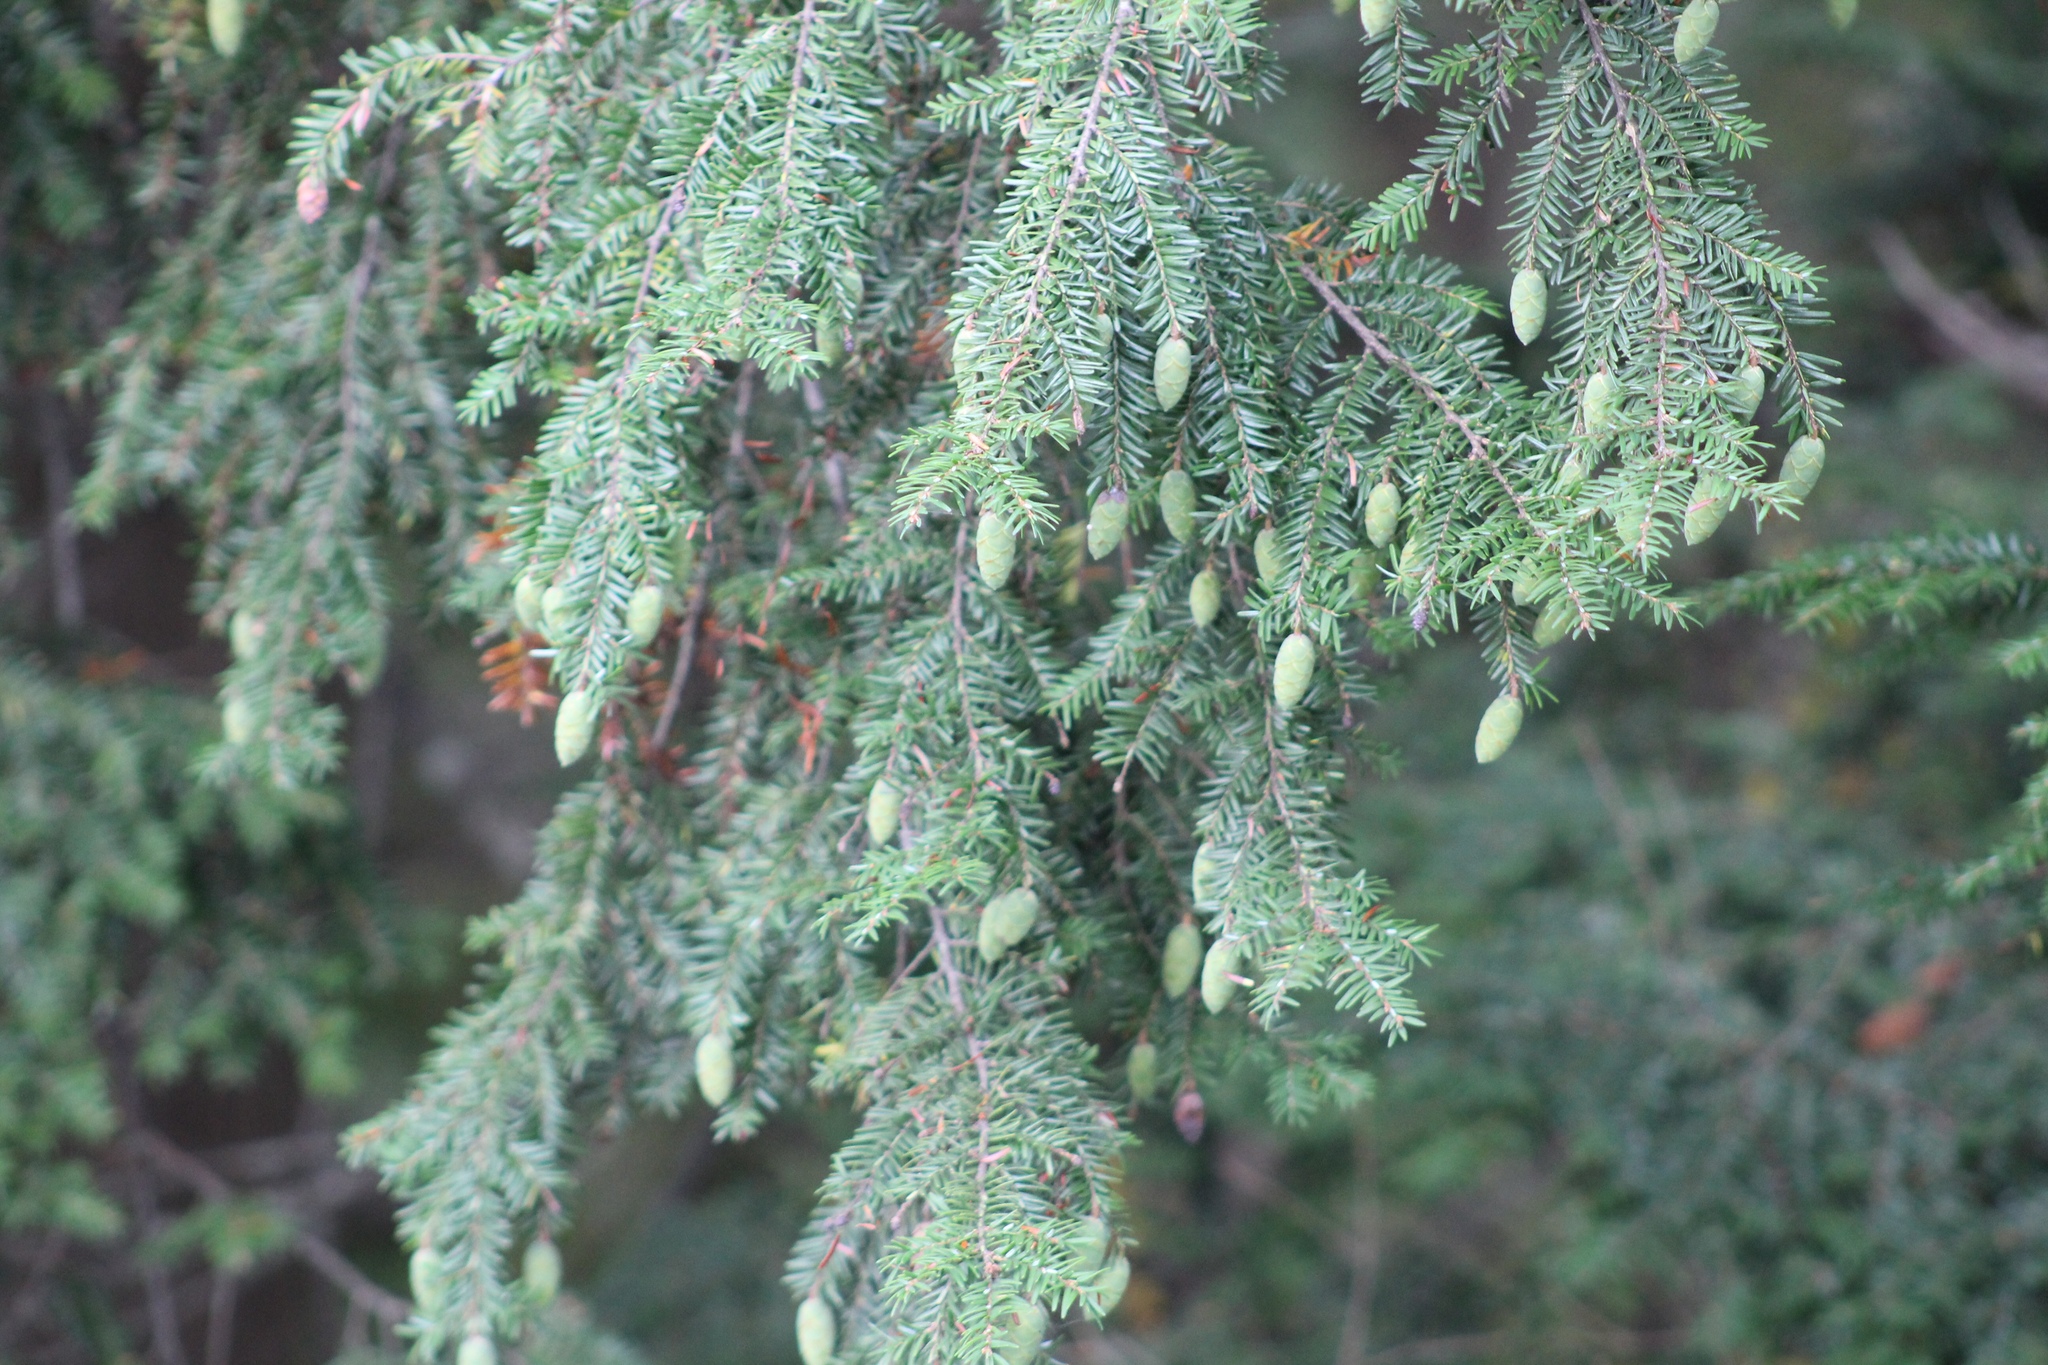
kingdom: Plantae
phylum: Tracheophyta
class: Pinopsida
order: Pinales
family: Pinaceae
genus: Tsuga
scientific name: Tsuga canadensis
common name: Eastern hemlock
